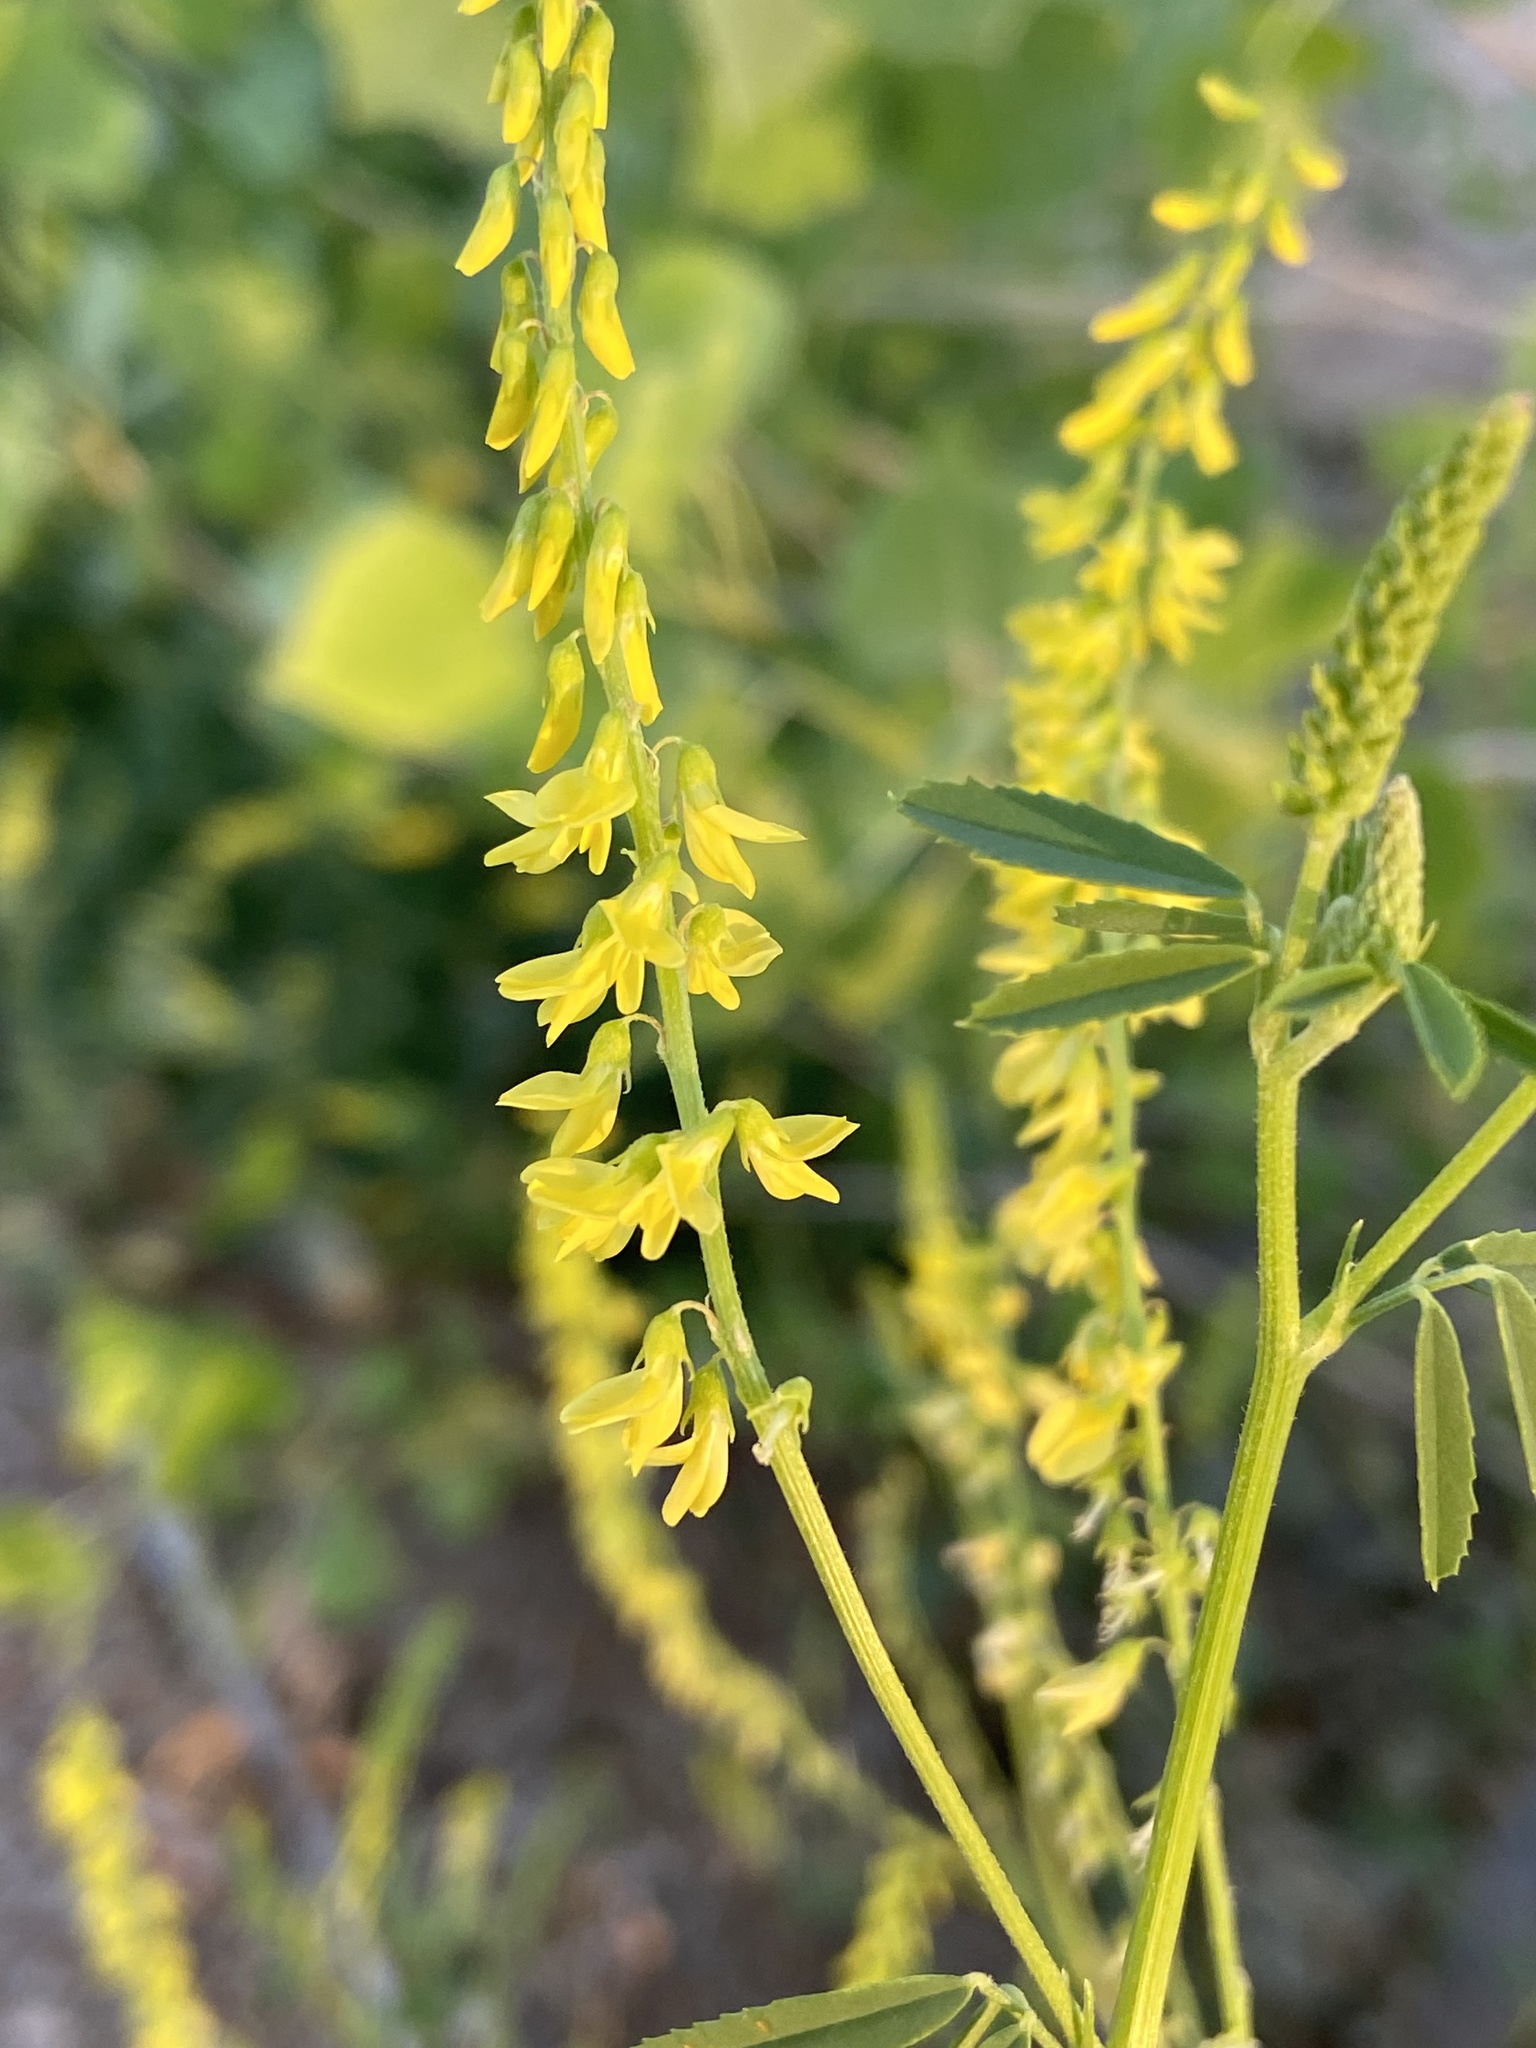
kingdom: Plantae
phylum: Tracheophyta
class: Magnoliopsida
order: Fabales
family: Fabaceae
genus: Melilotus
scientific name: Melilotus officinalis
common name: Sweetclover
